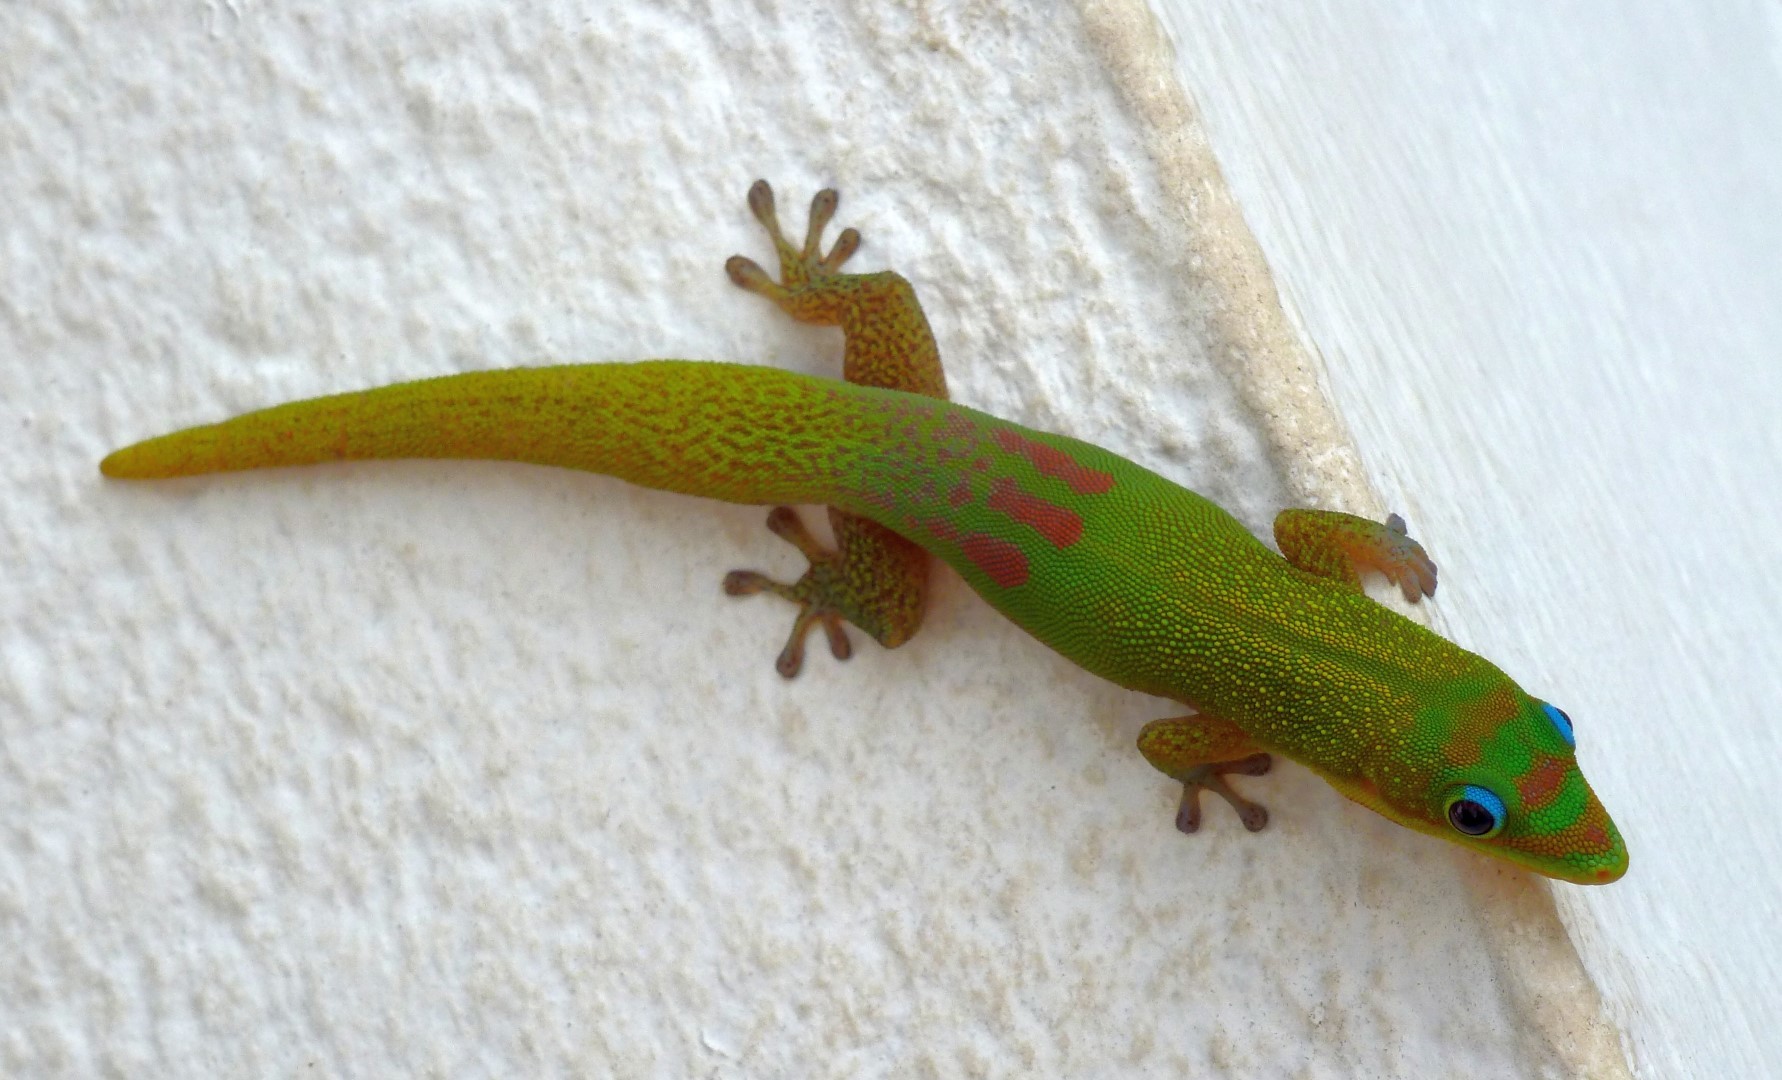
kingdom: Animalia
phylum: Chordata
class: Squamata
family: Gekkonidae
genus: Phelsuma
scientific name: Phelsuma laticauda
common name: Gold dust day gecko
